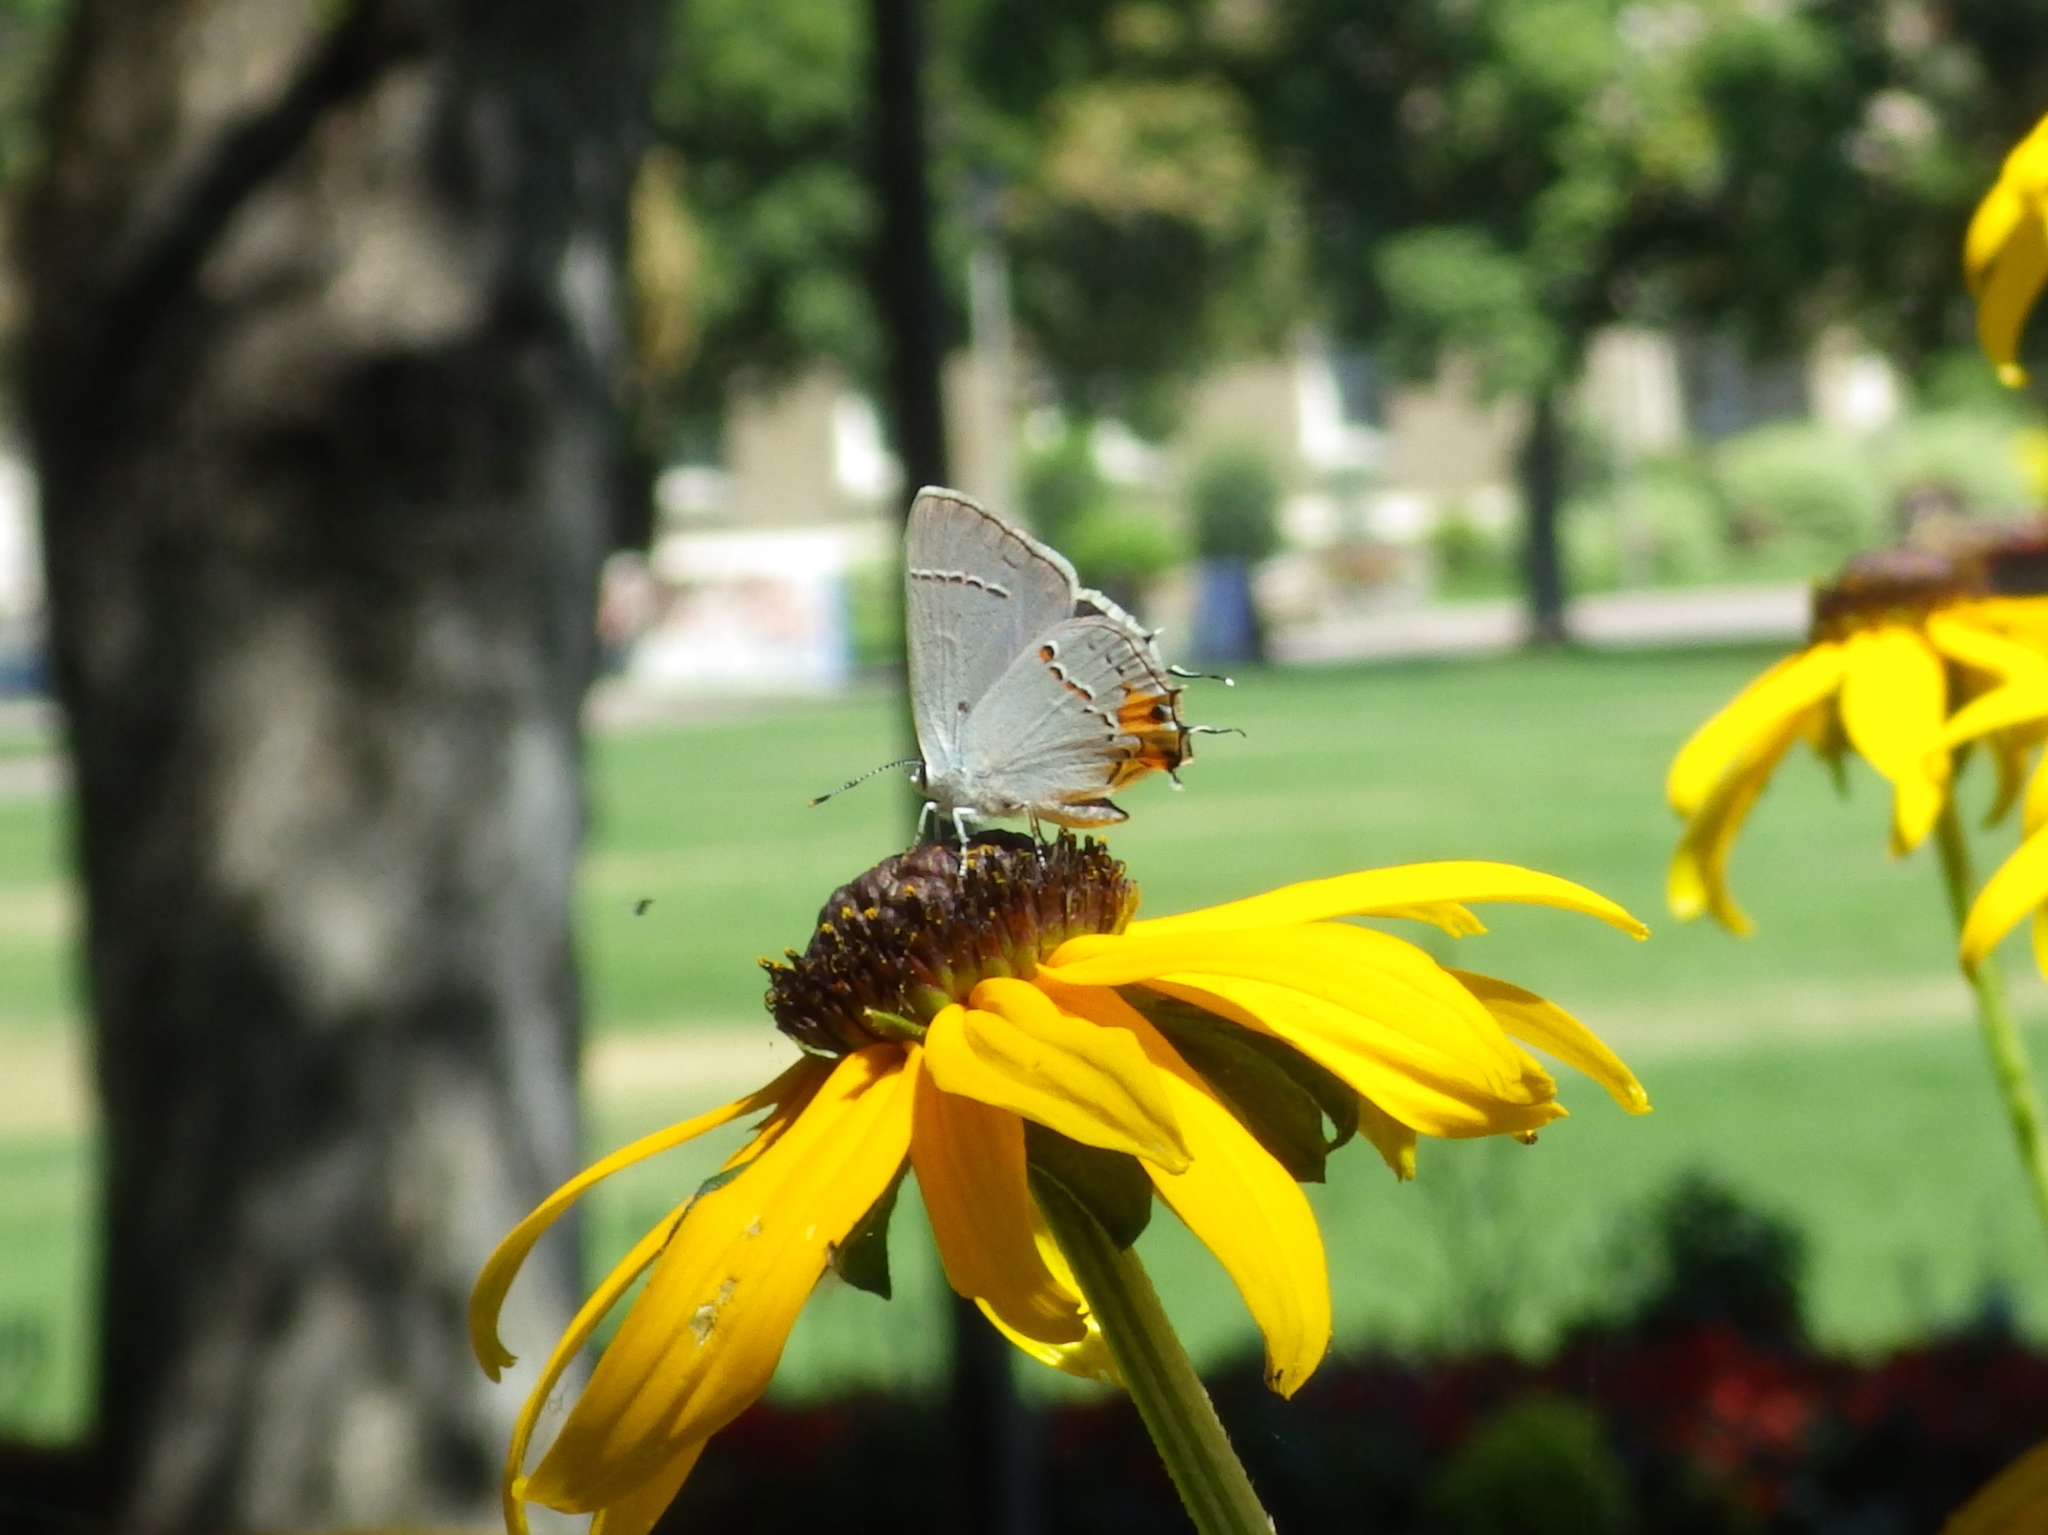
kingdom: Animalia
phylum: Arthropoda
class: Insecta
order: Lepidoptera
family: Lycaenidae
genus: Strymon
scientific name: Strymon melinus
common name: Gray hairstreak
